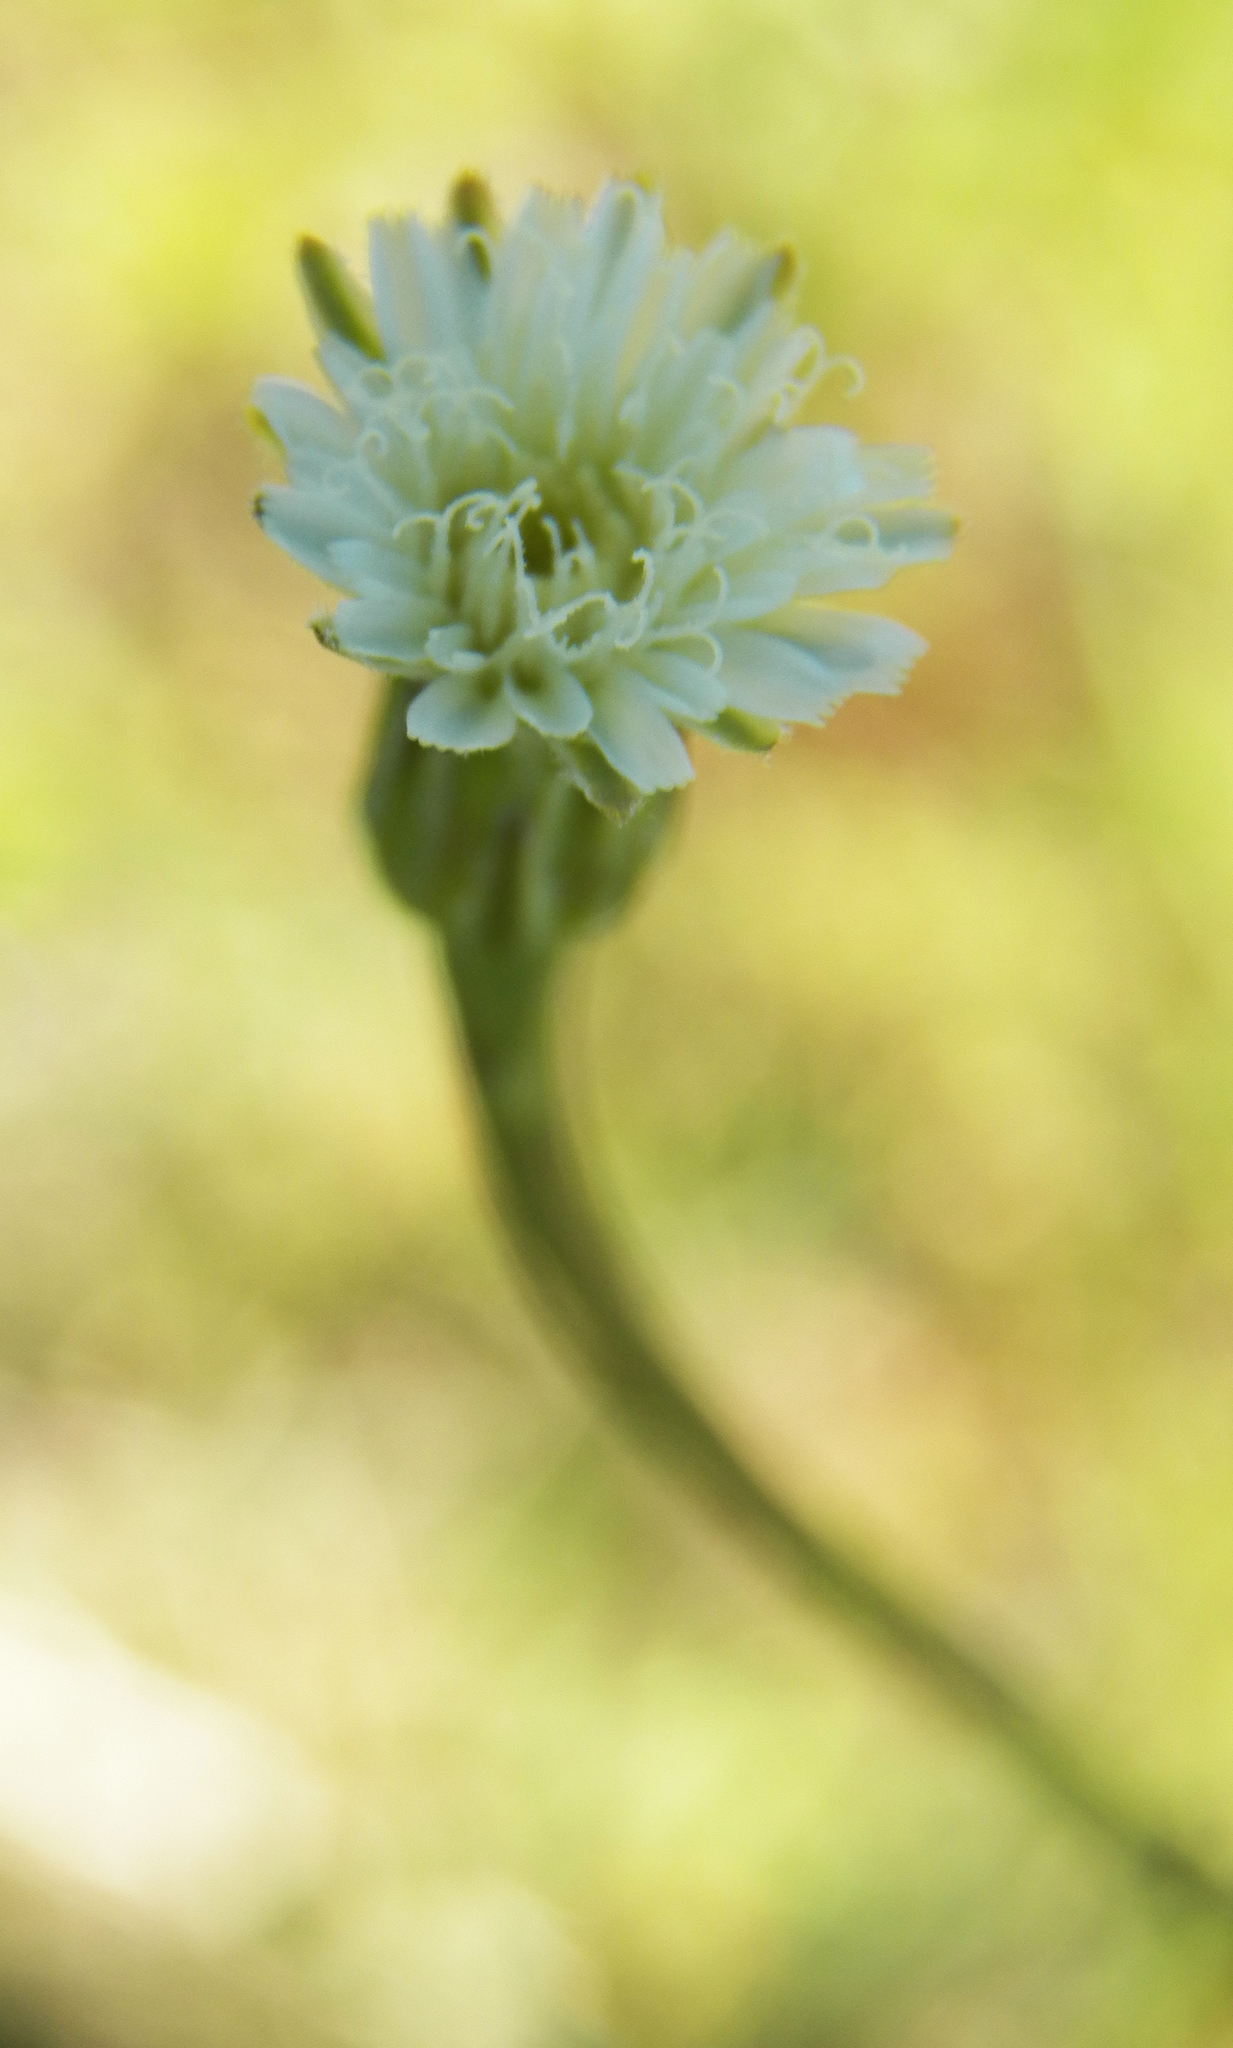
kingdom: Plantae
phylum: Tracheophyta
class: Magnoliopsida
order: Asterales
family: Asteraceae
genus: Hypochaeris
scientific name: Hypochaeris albiflora
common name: White flatweed
